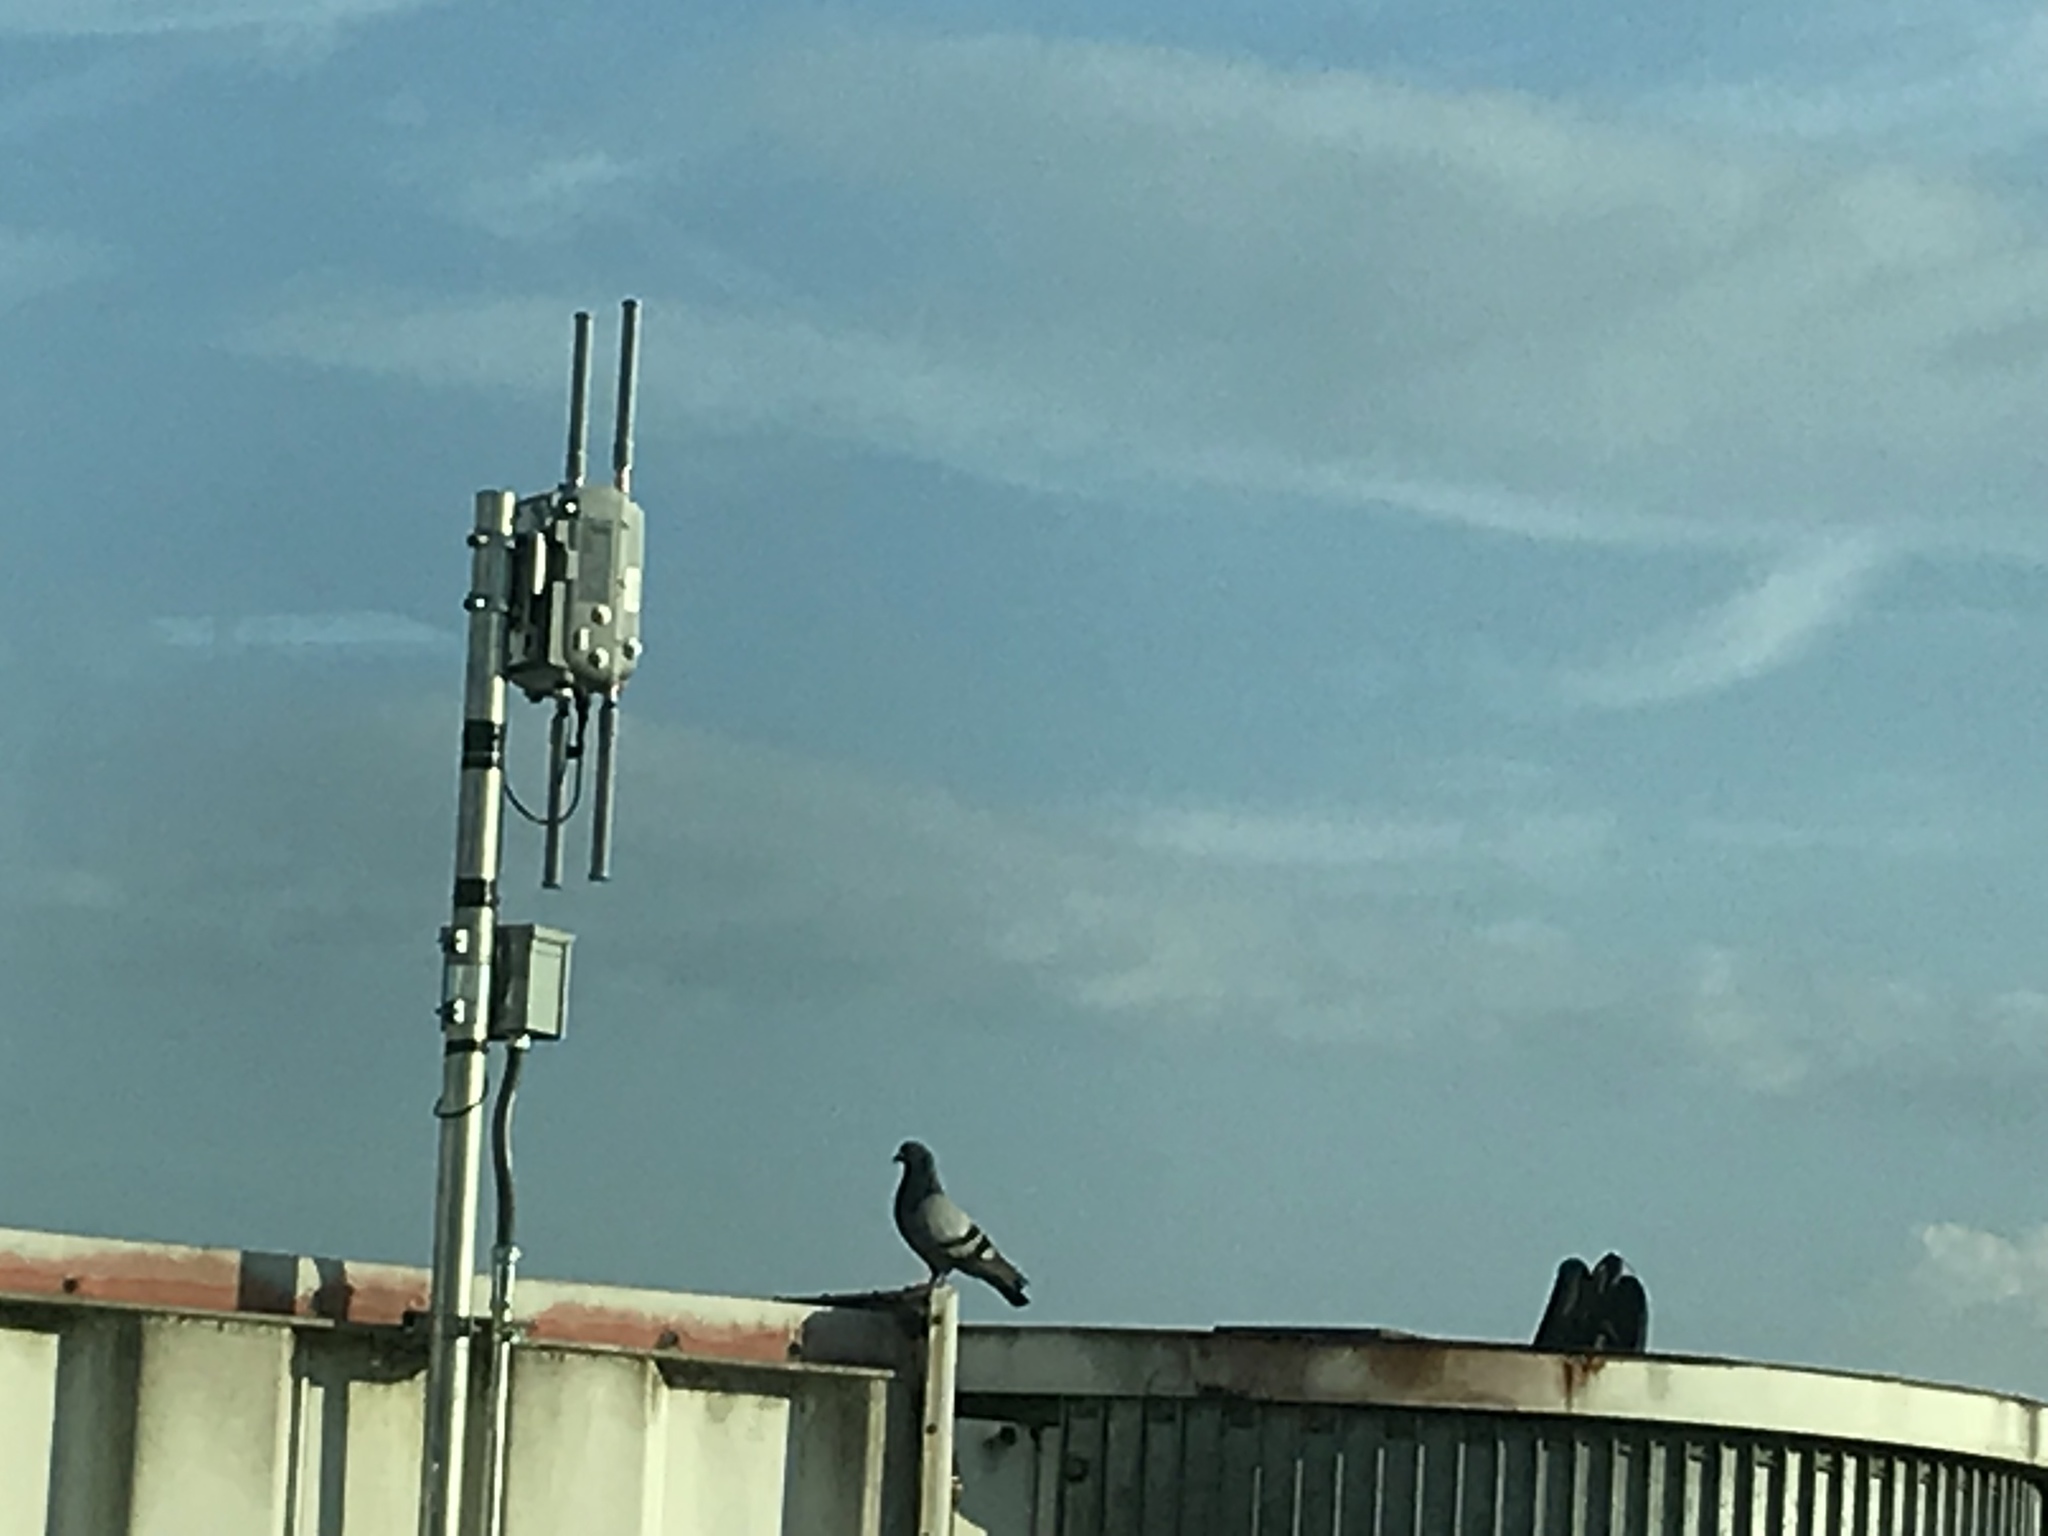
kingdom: Animalia
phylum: Chordata
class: Aves
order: Columbiformes
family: Columbidae
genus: Columba
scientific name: Columba livia
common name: Rock pigeon
